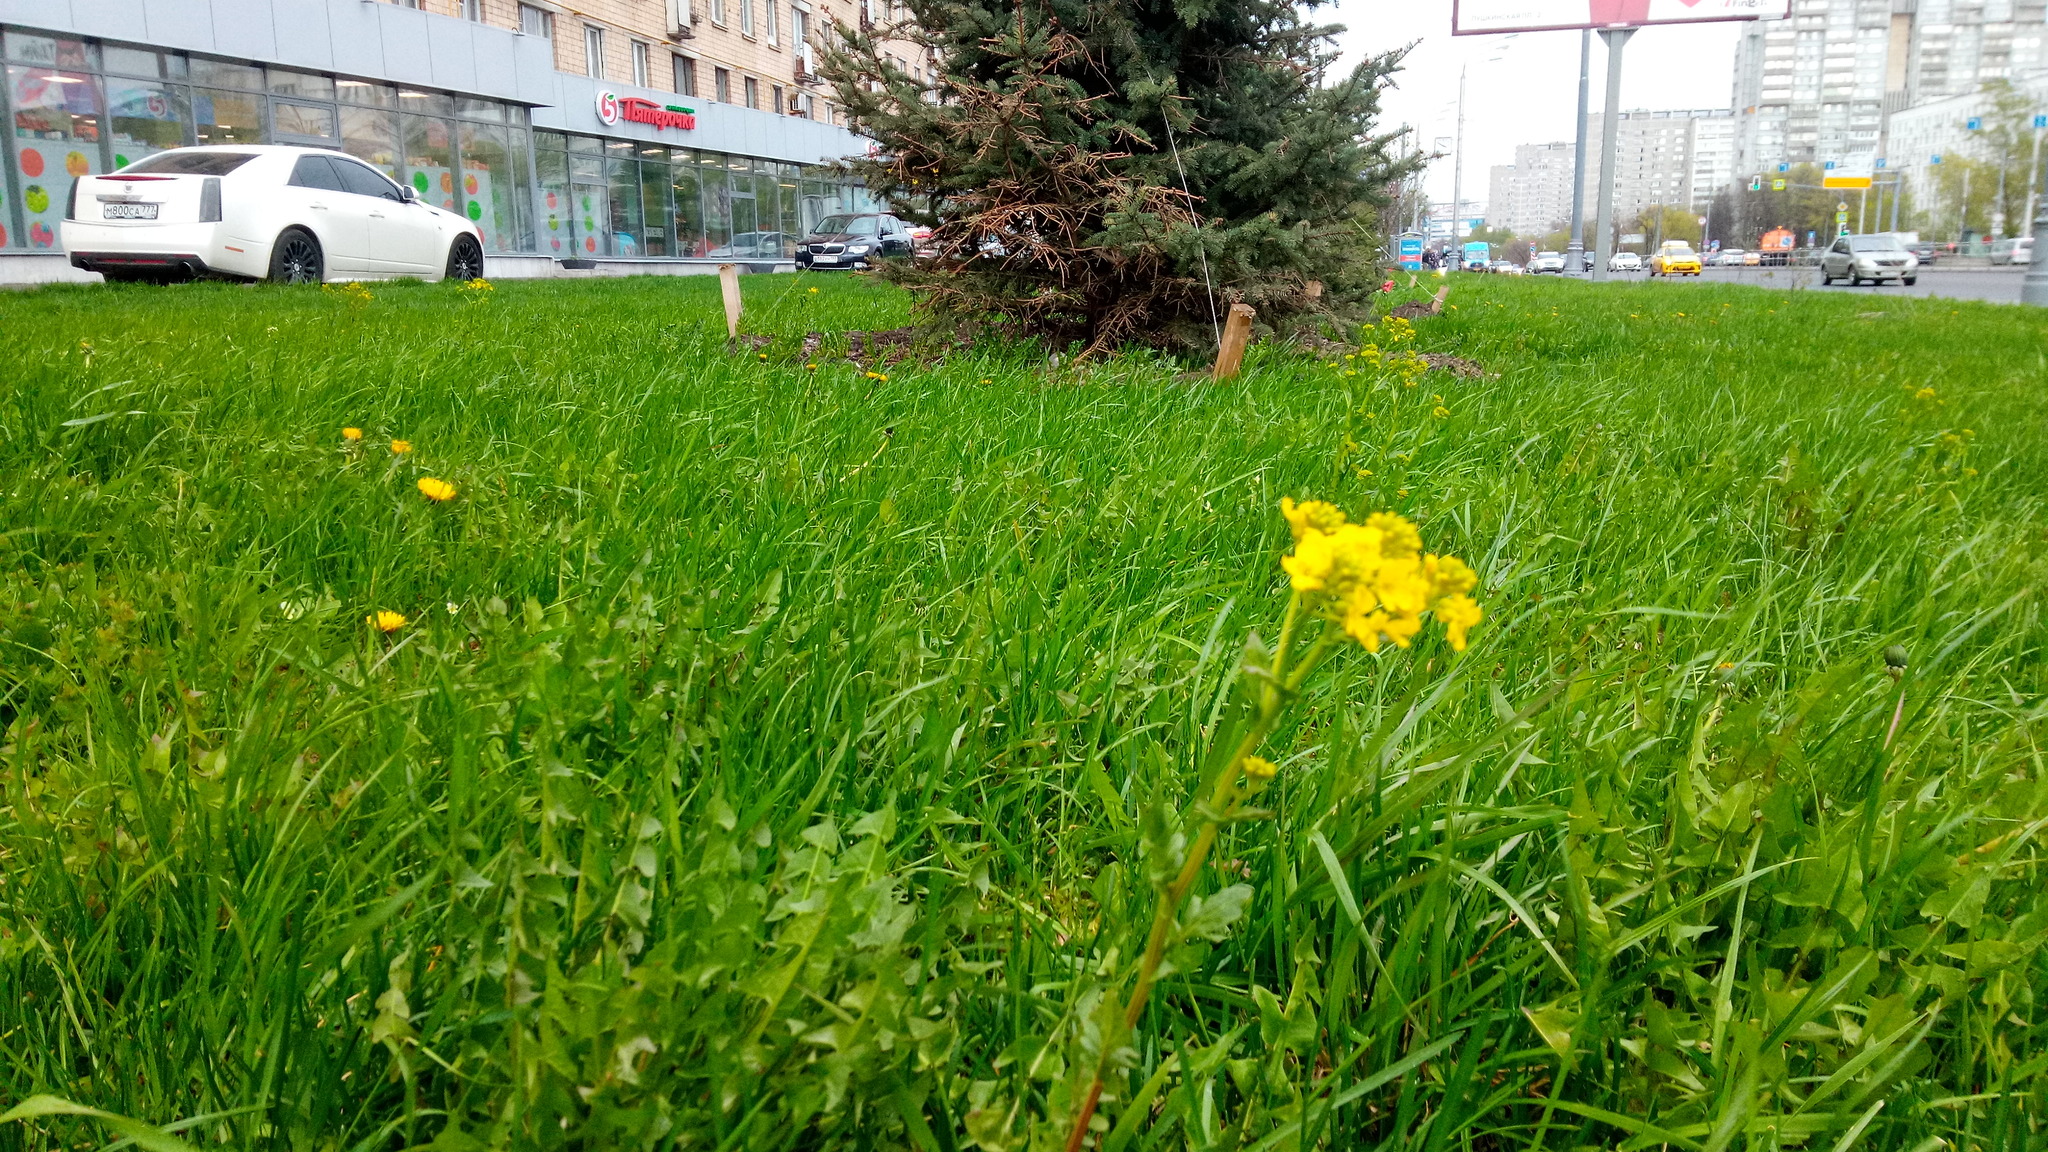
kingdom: Plantae
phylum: Tracheophyta
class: Magnoliopsida
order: Brassicales
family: Brassicaceae
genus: Barbarea
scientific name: Barbarea vulgaris
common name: Cressy-greens
